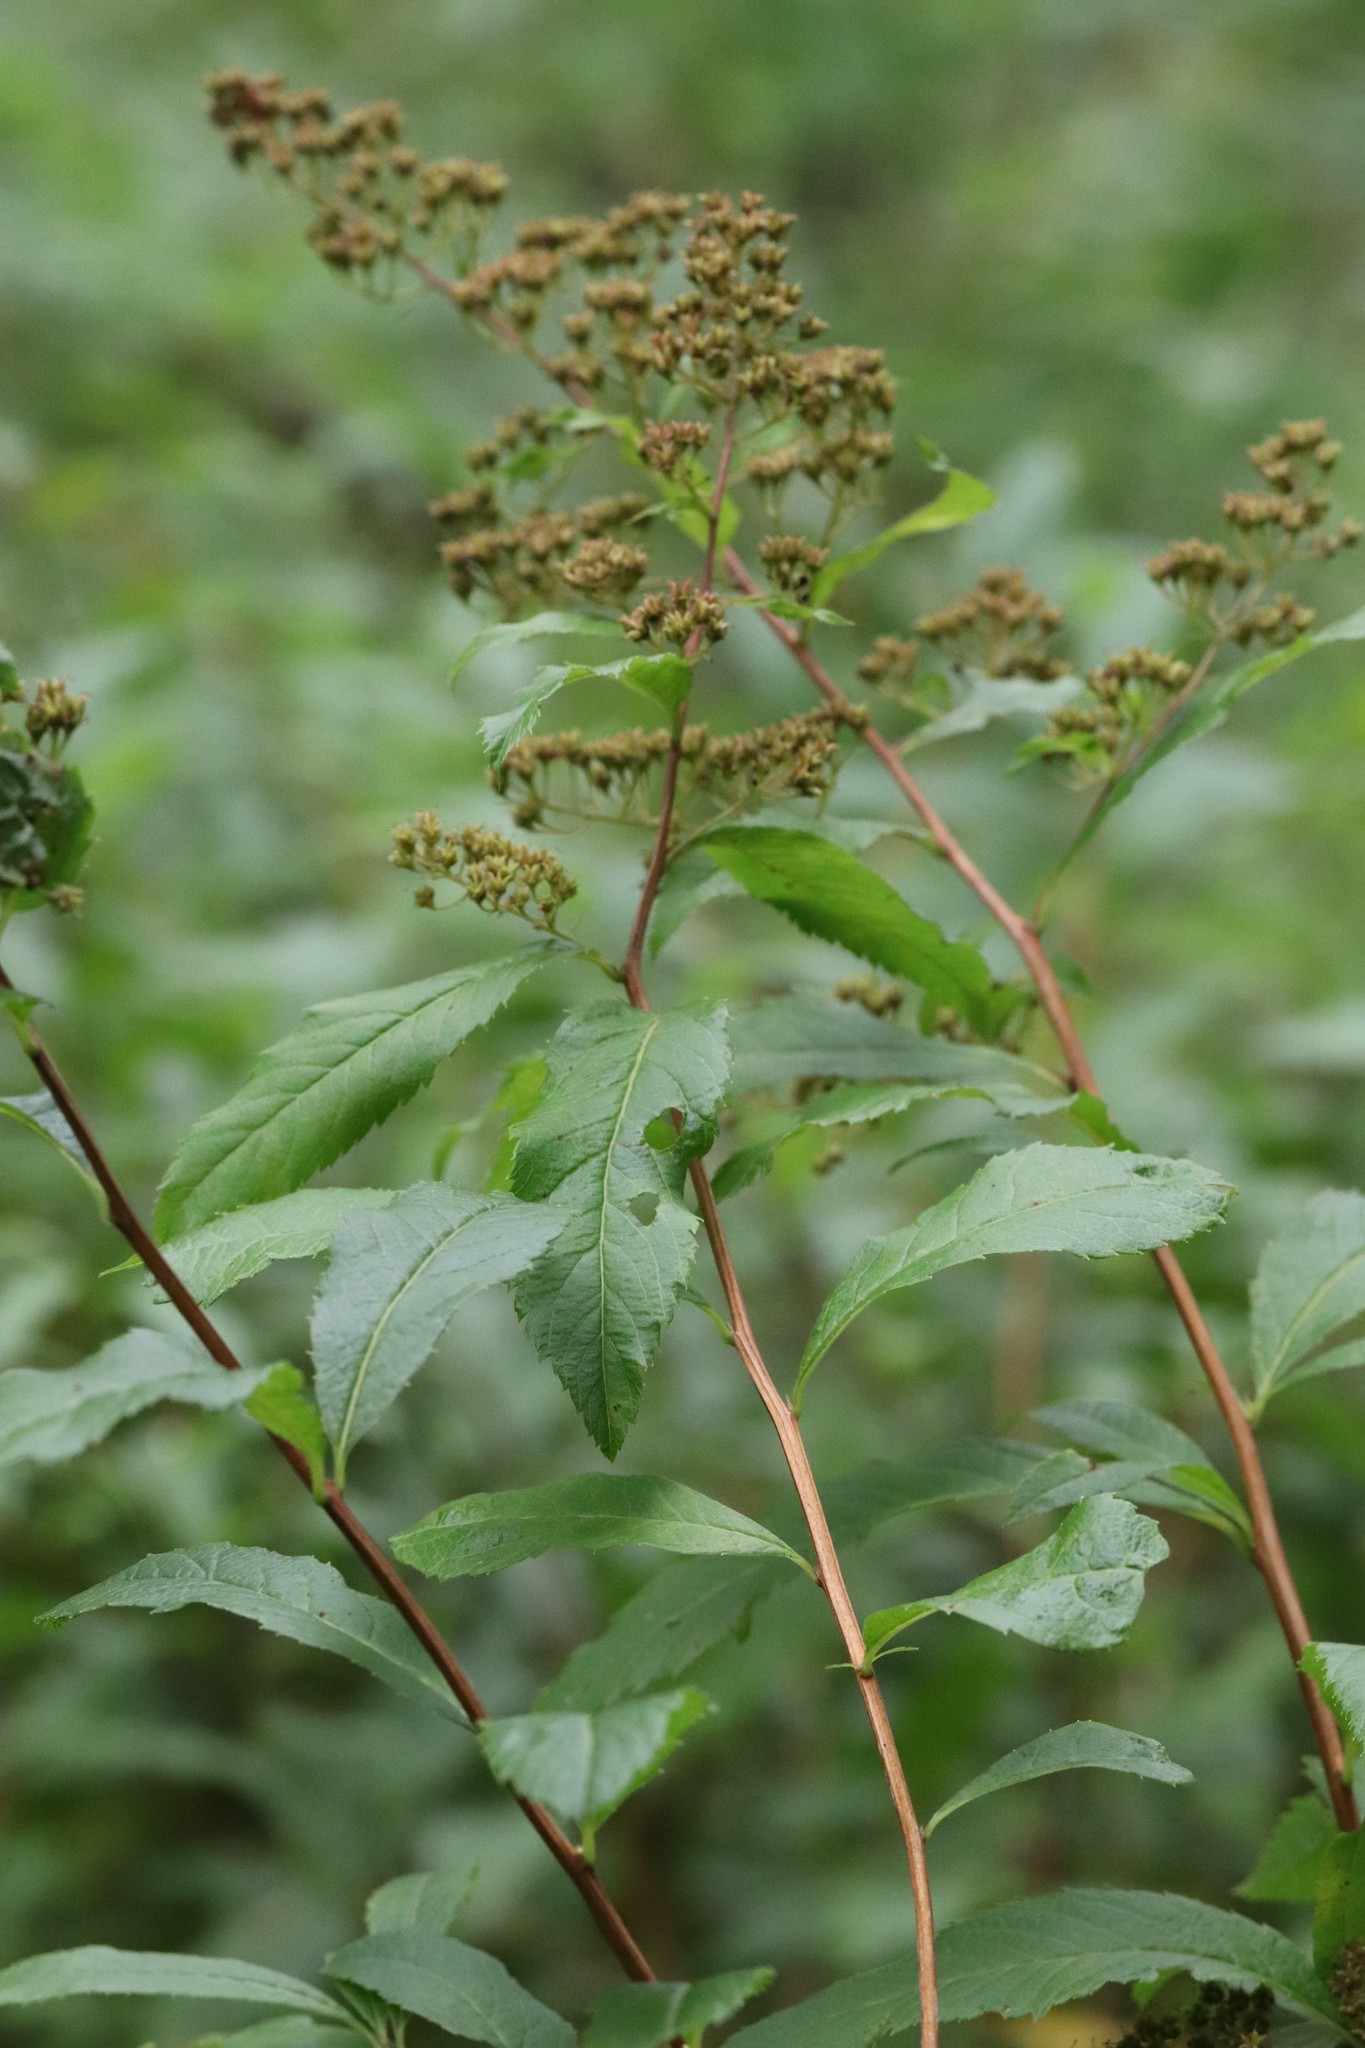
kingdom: Plantae
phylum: Tracheophyta
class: Magnoliopsida
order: Rosales
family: Rosaceae
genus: Spiraea
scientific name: Spiraea salicifolia
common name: Bridewort
